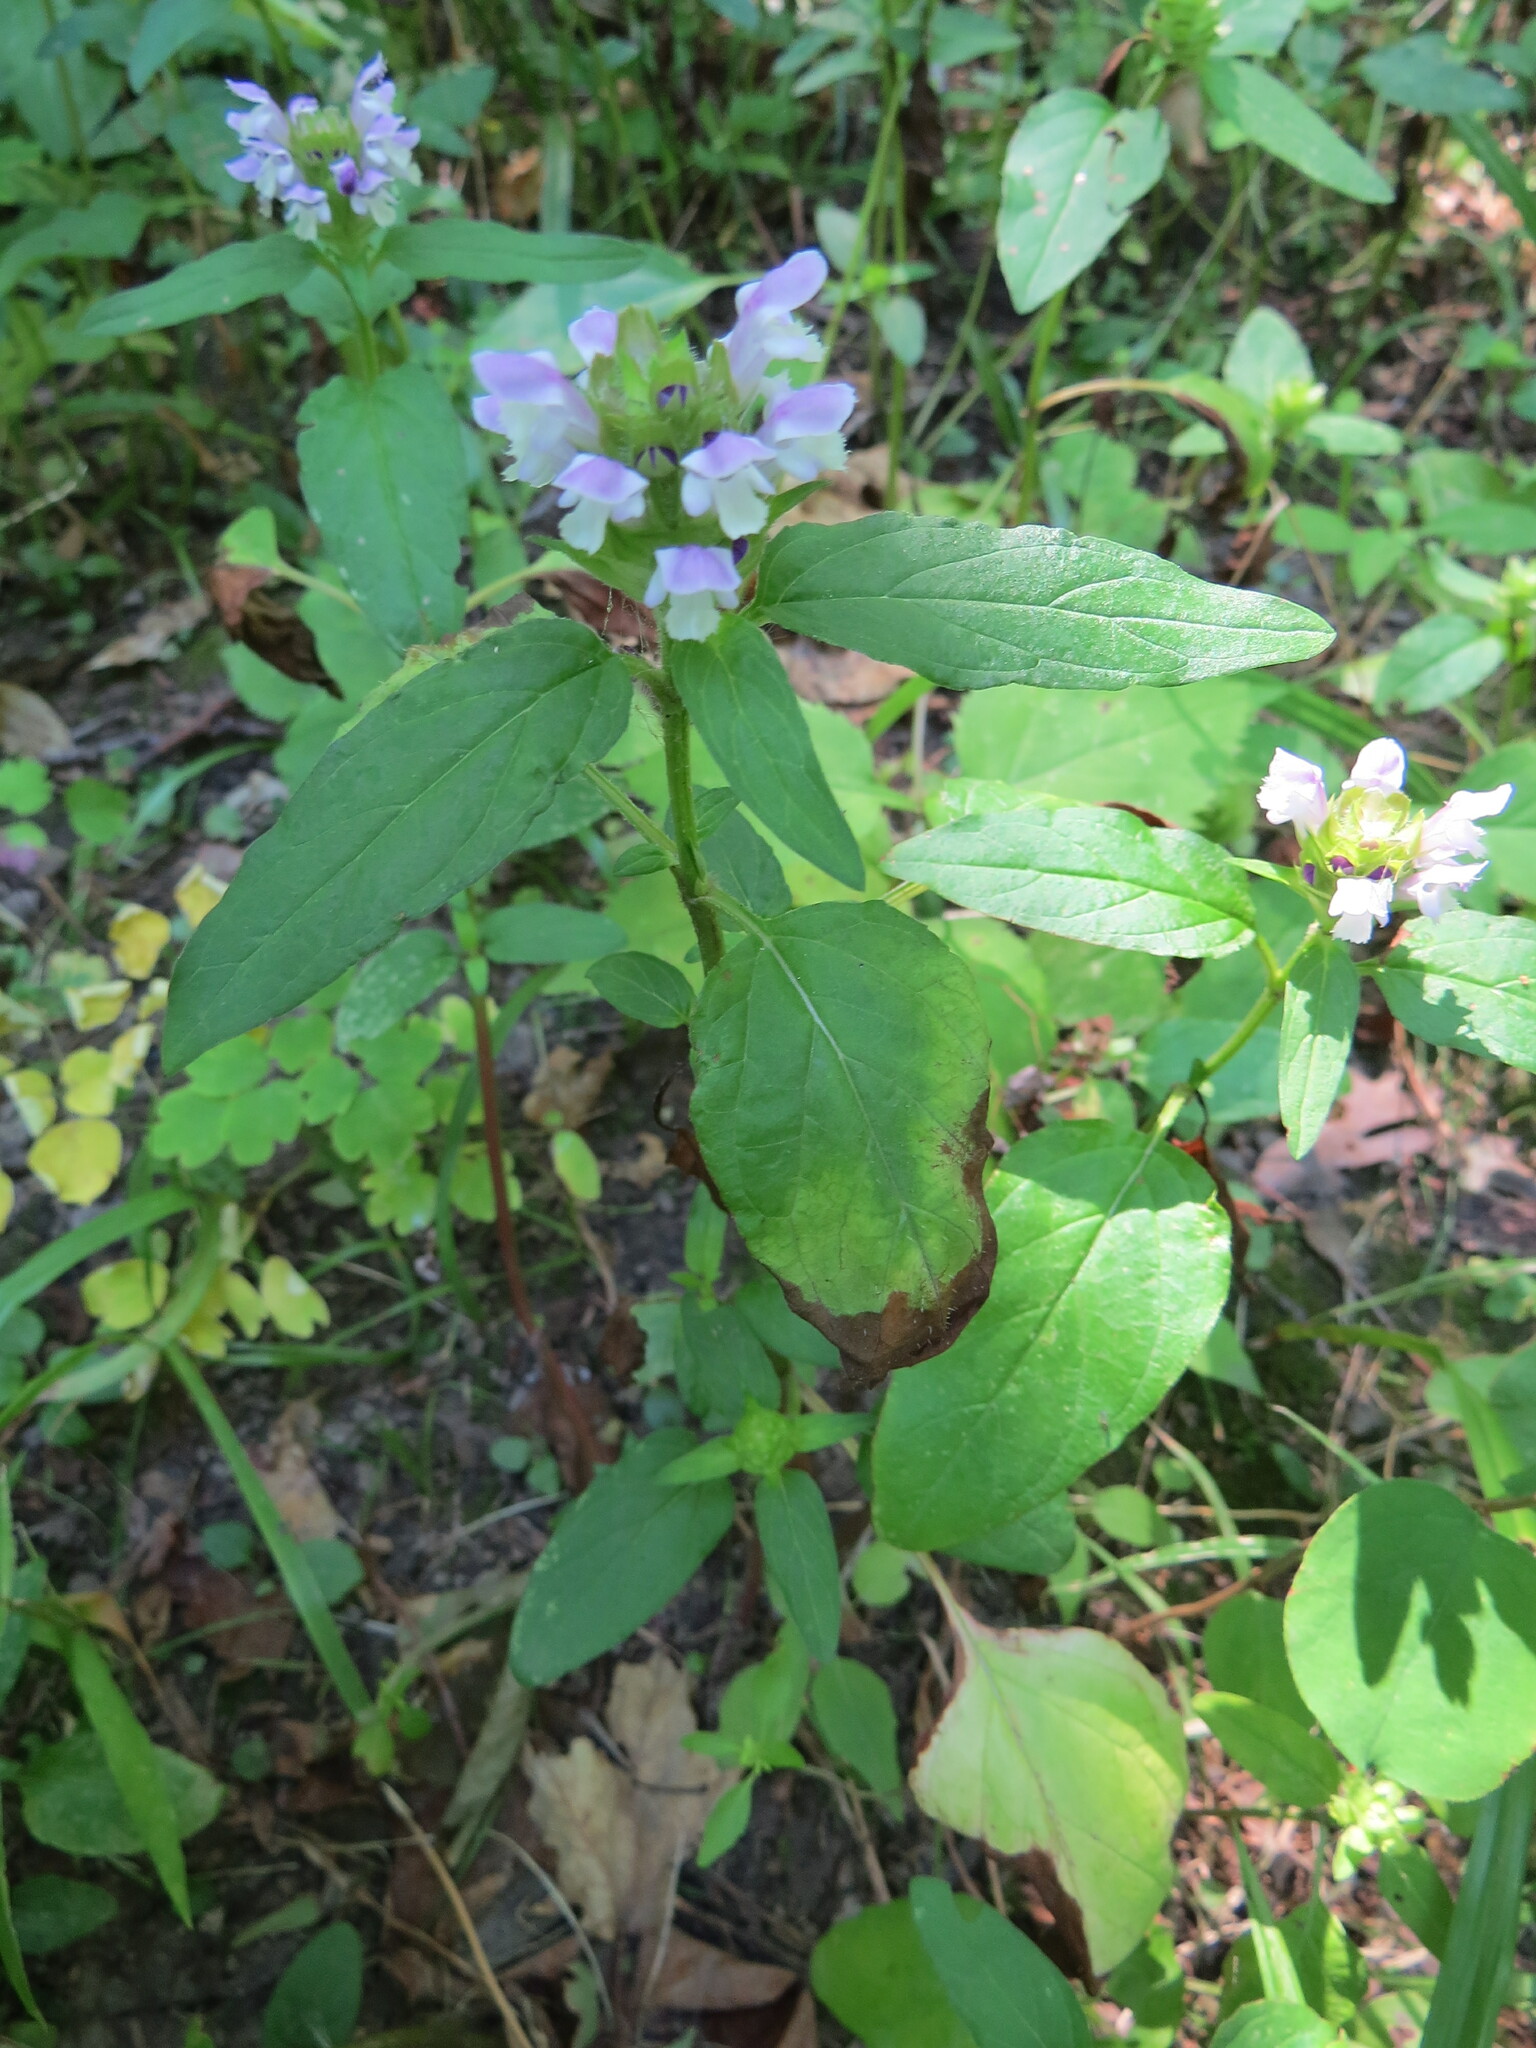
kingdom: Plantae
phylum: Tracheophyta
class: Magnoliopsida
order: Lamiales
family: Lamiaceae
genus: Prunella
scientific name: Prunella vulgaris
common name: Heal-all
